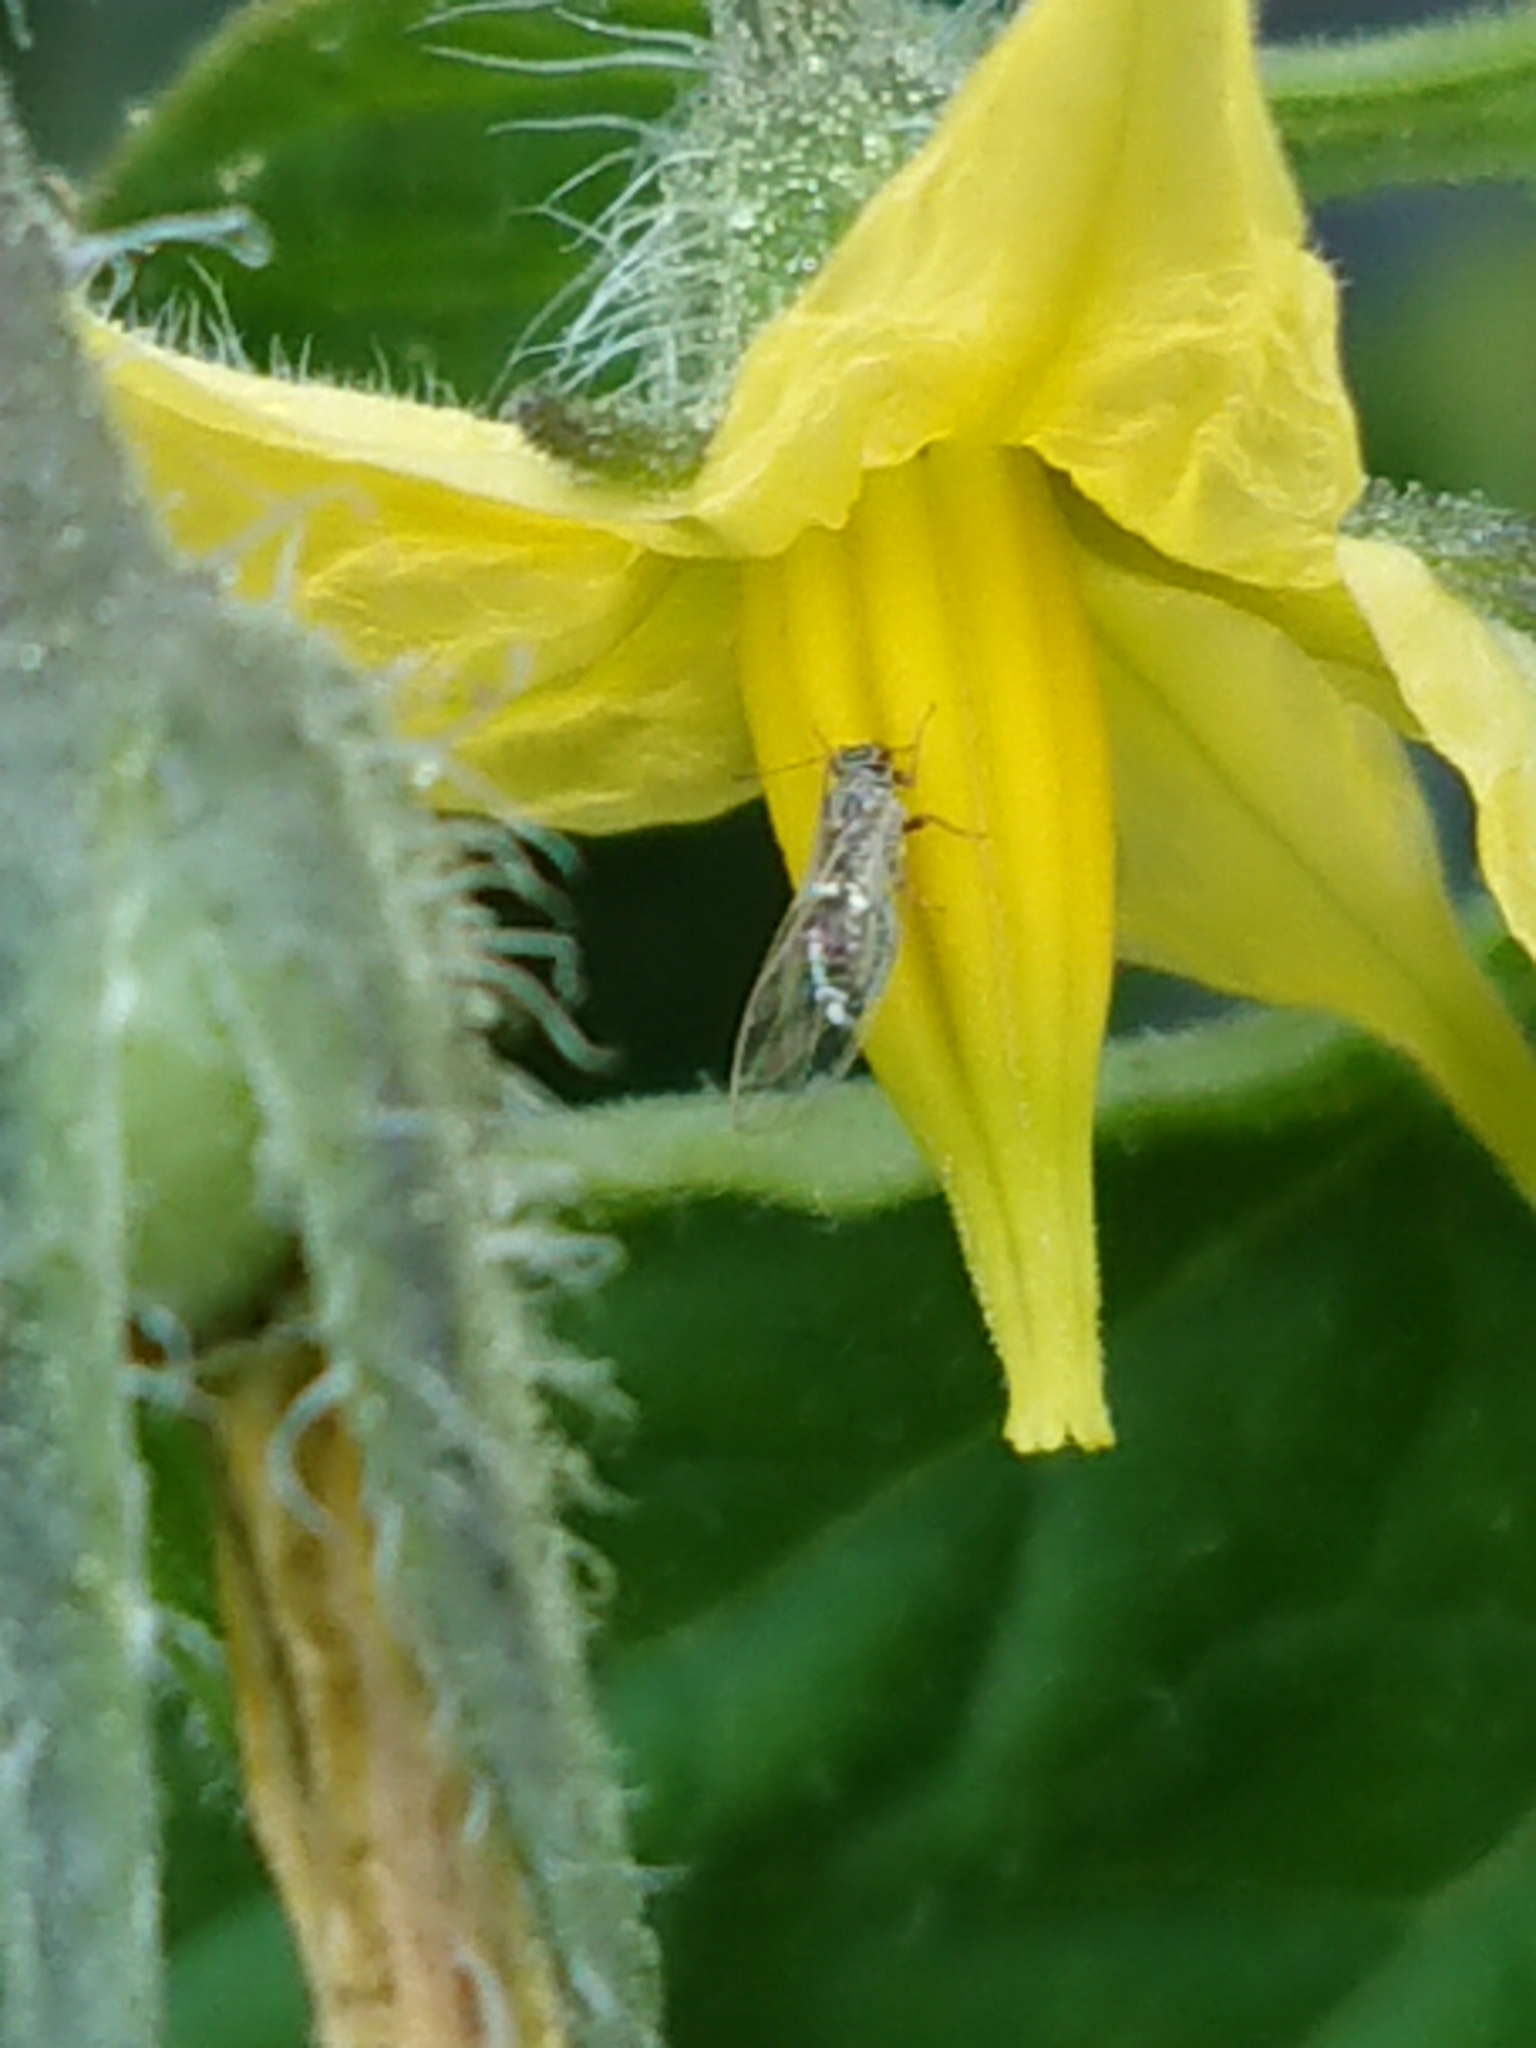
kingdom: Animalia
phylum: Arthropoda
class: Insecta
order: Hemiptera
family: Triozidae
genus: Bactericera
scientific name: Bactericera cockerelli
